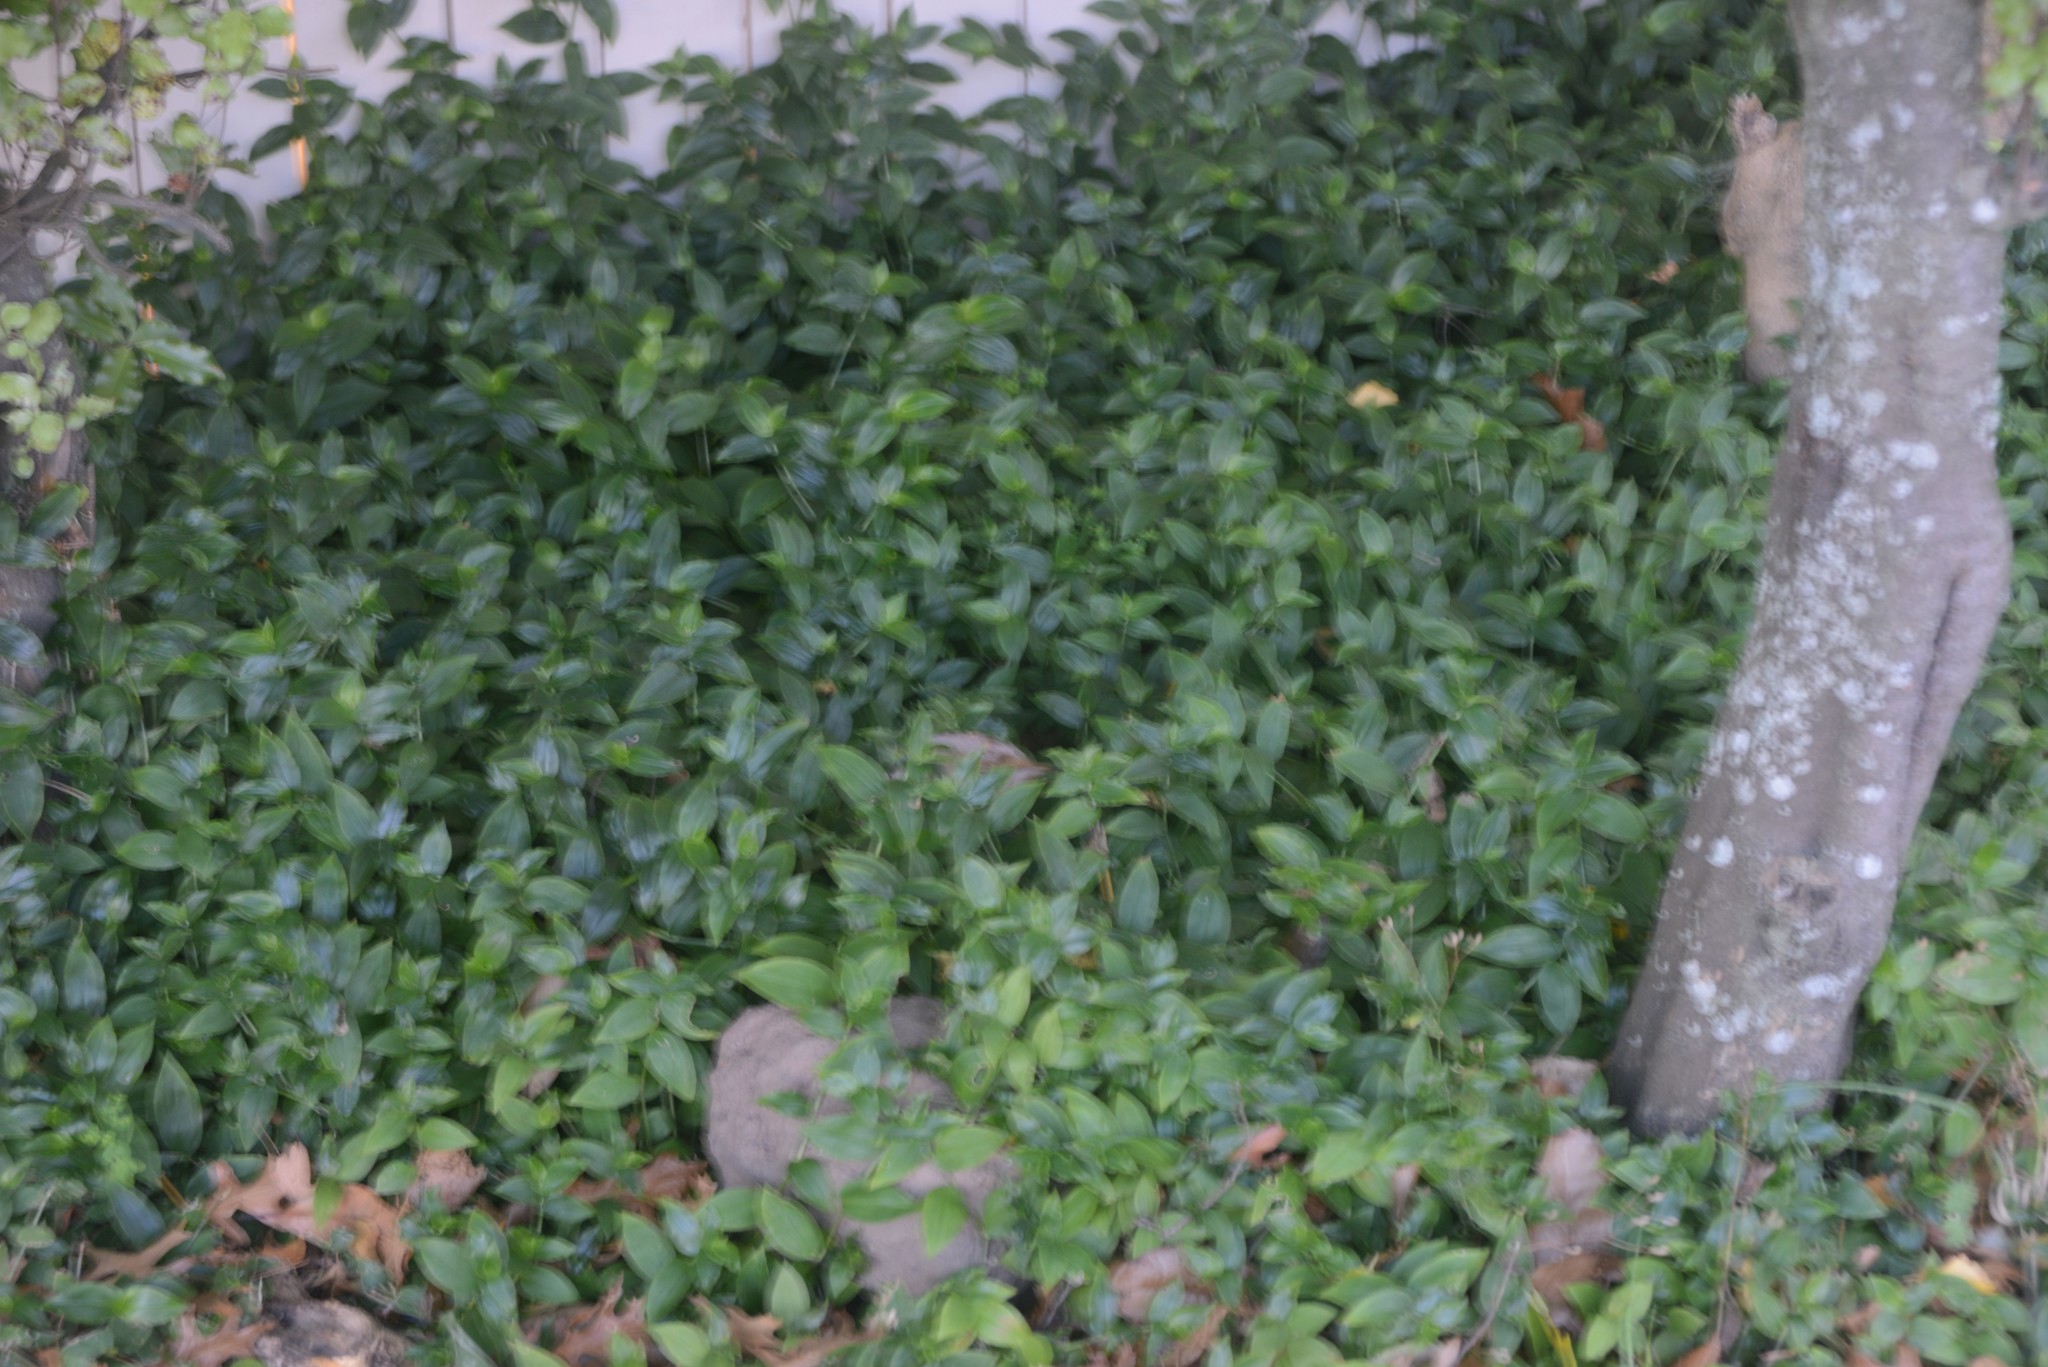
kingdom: Plantae
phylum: Tracheophyta
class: Liliopsida
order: Commelinales
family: Commelinaceae
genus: Tradescantia
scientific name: Tradescantia fluminensis
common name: Wandering-jew
